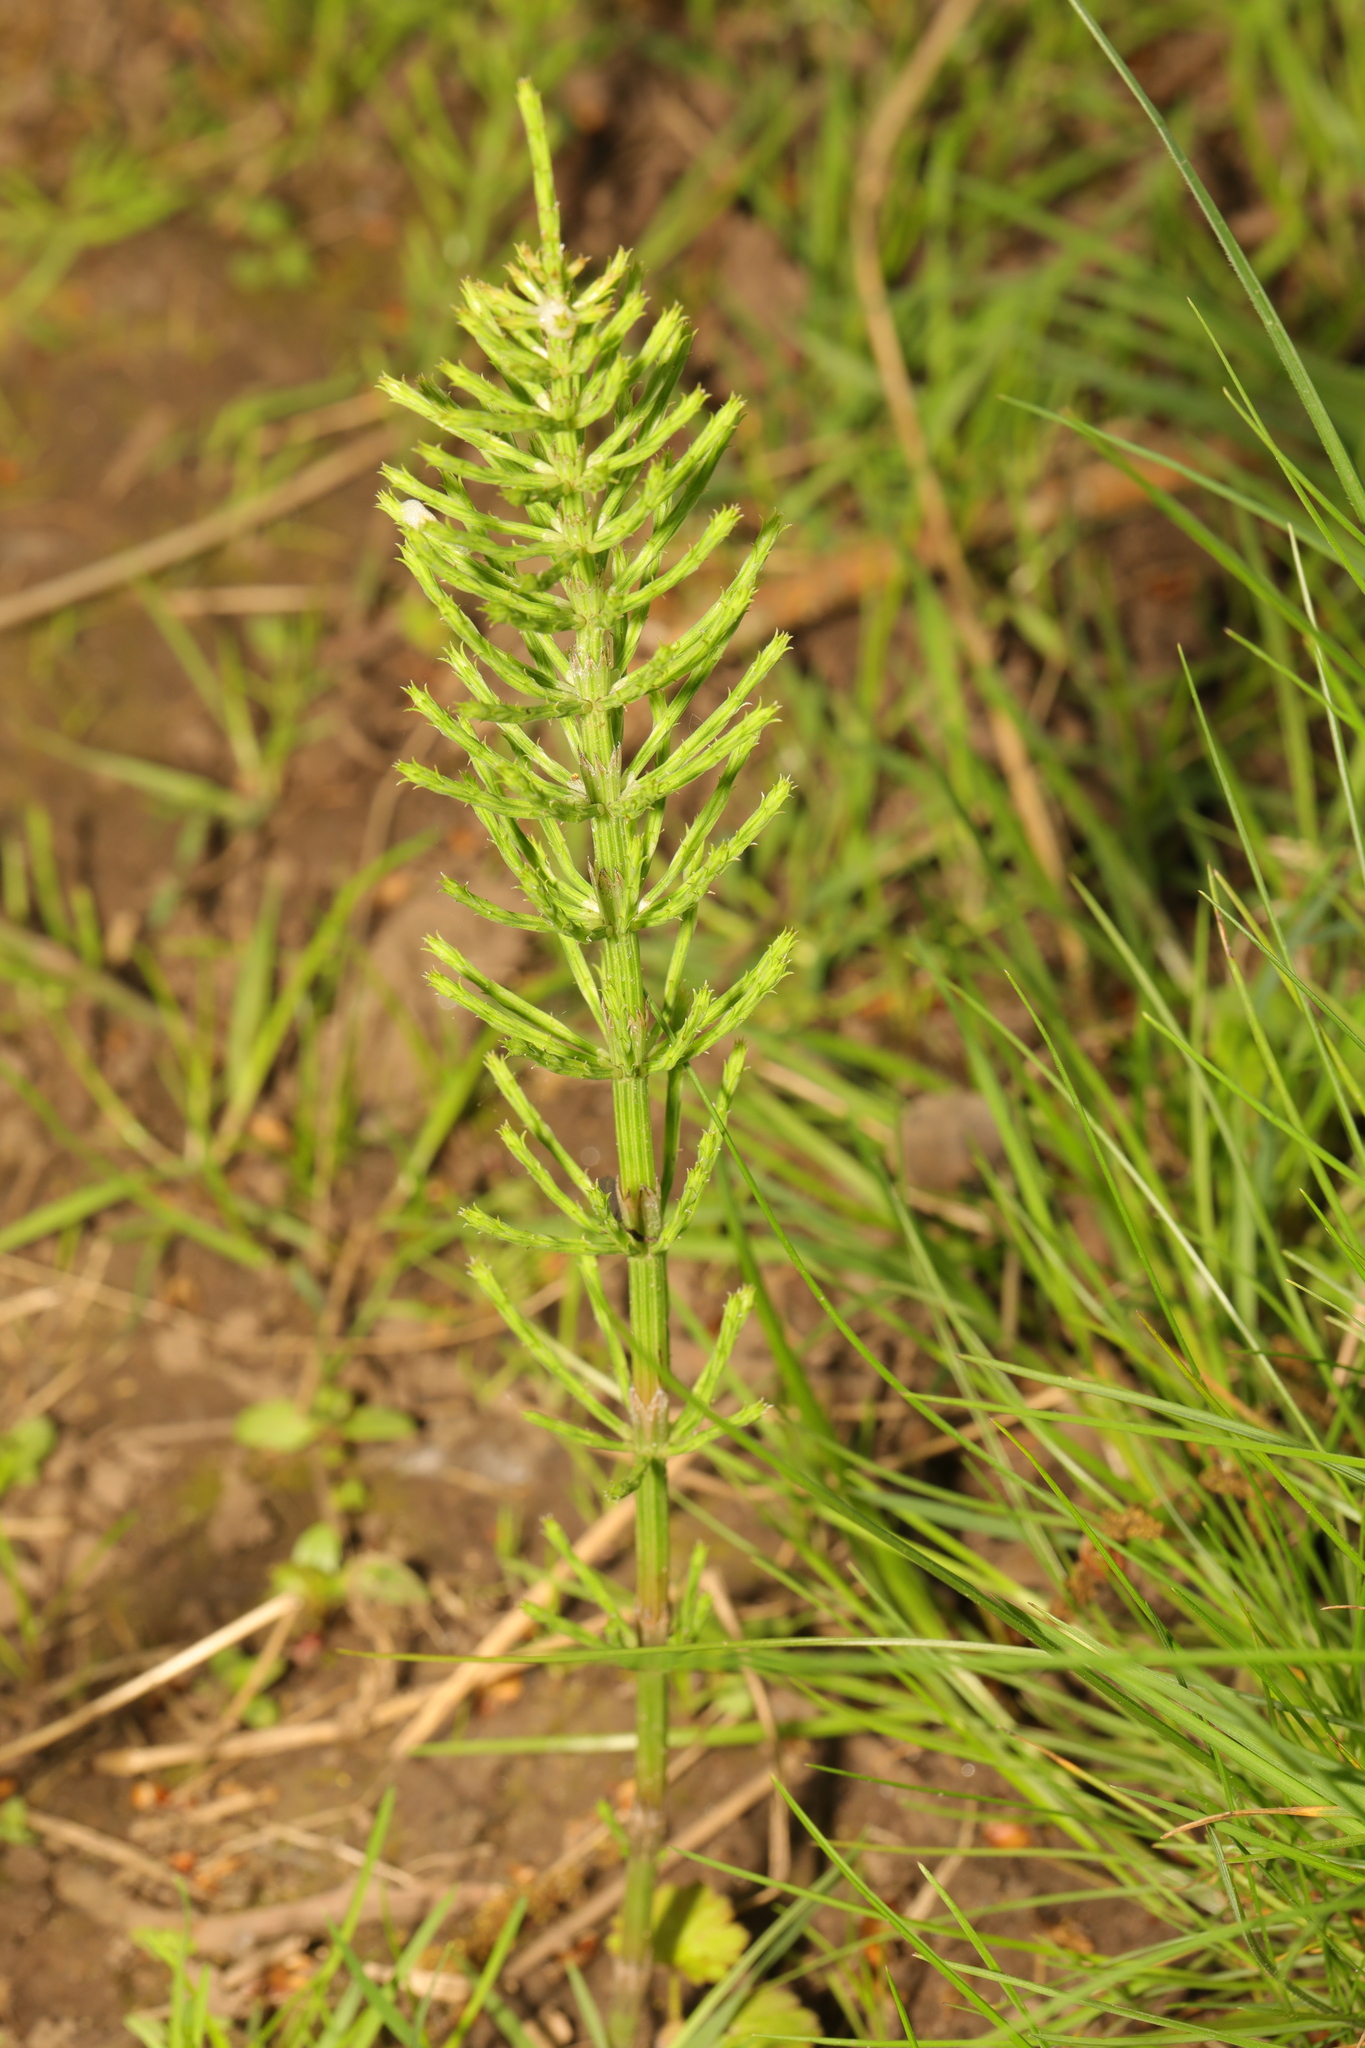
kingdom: Plantae
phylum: Tracheophyta
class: Polypodiopsida
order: Equisetales
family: Equisetaceae
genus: Equisetum
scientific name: Equisetum arvense
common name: Field horsetail
